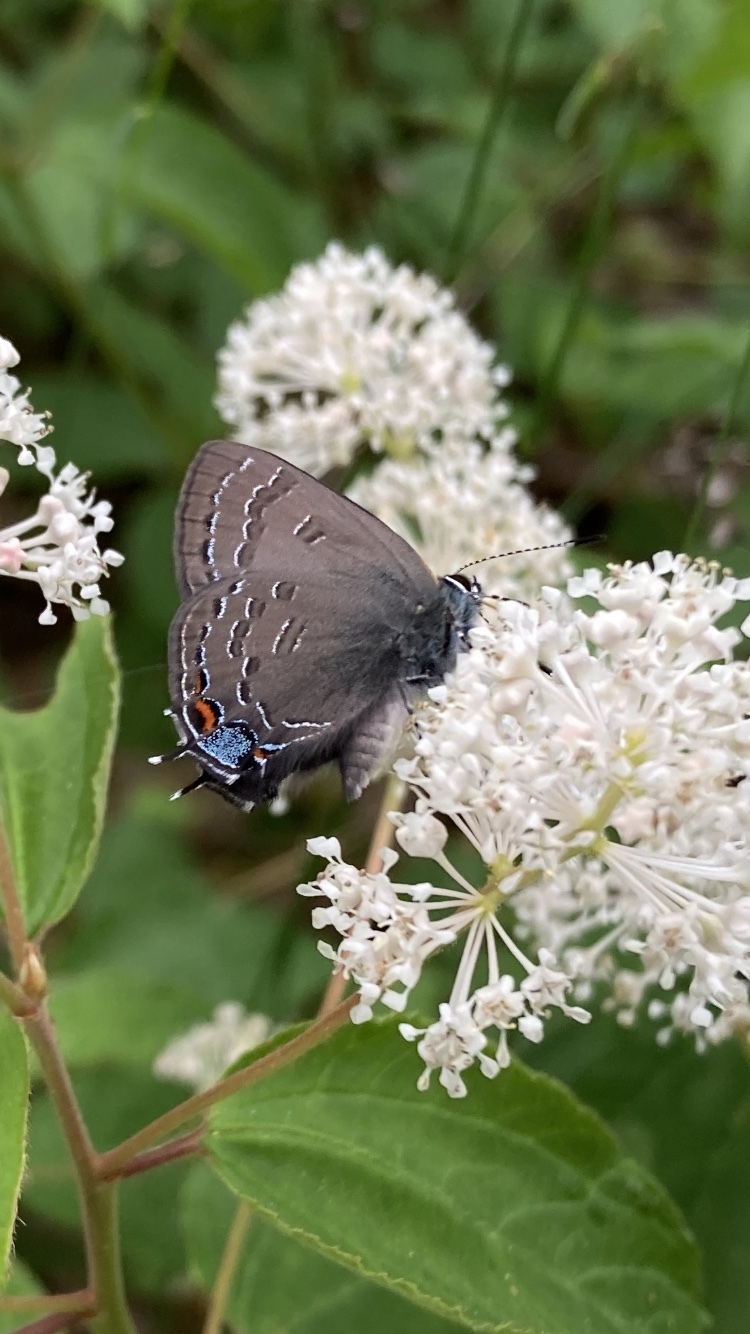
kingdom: Animalia
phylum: Arthropoda
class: Insecta
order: Lepidoptera
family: Lycaenidae
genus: Satyrium
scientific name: Satyrium calanus
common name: Banded hairstreak
